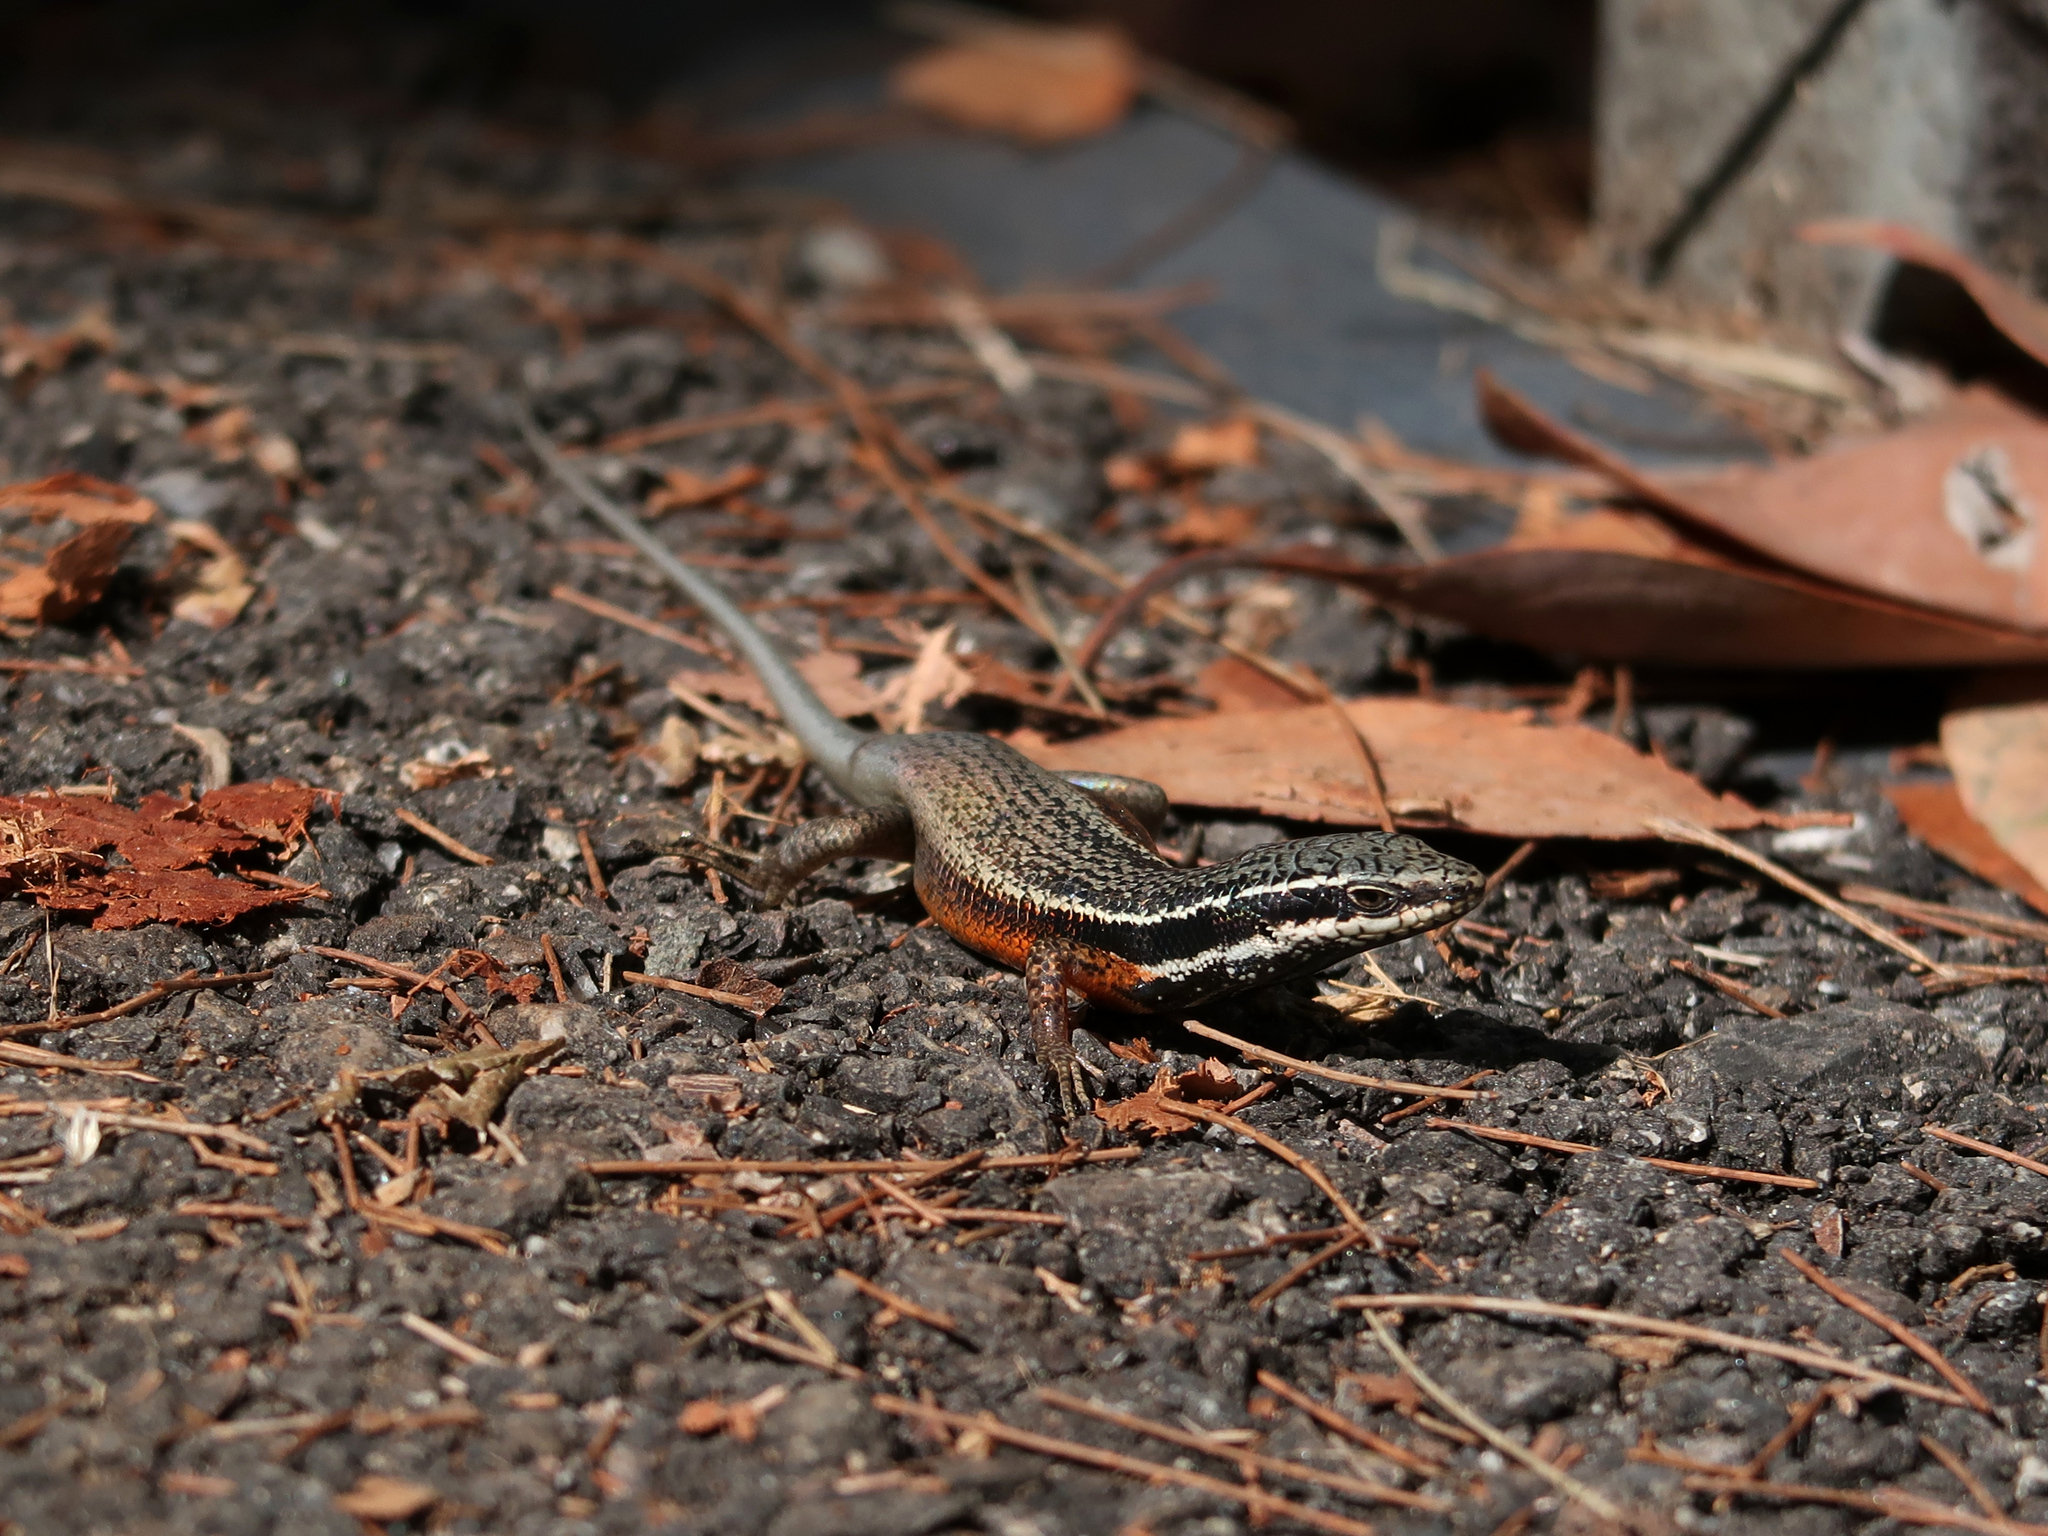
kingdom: Animalia
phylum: Chordata
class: Squamata
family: Scincidae
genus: Carlia
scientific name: Carlia rostralis
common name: Black-throated rainbow-skink
